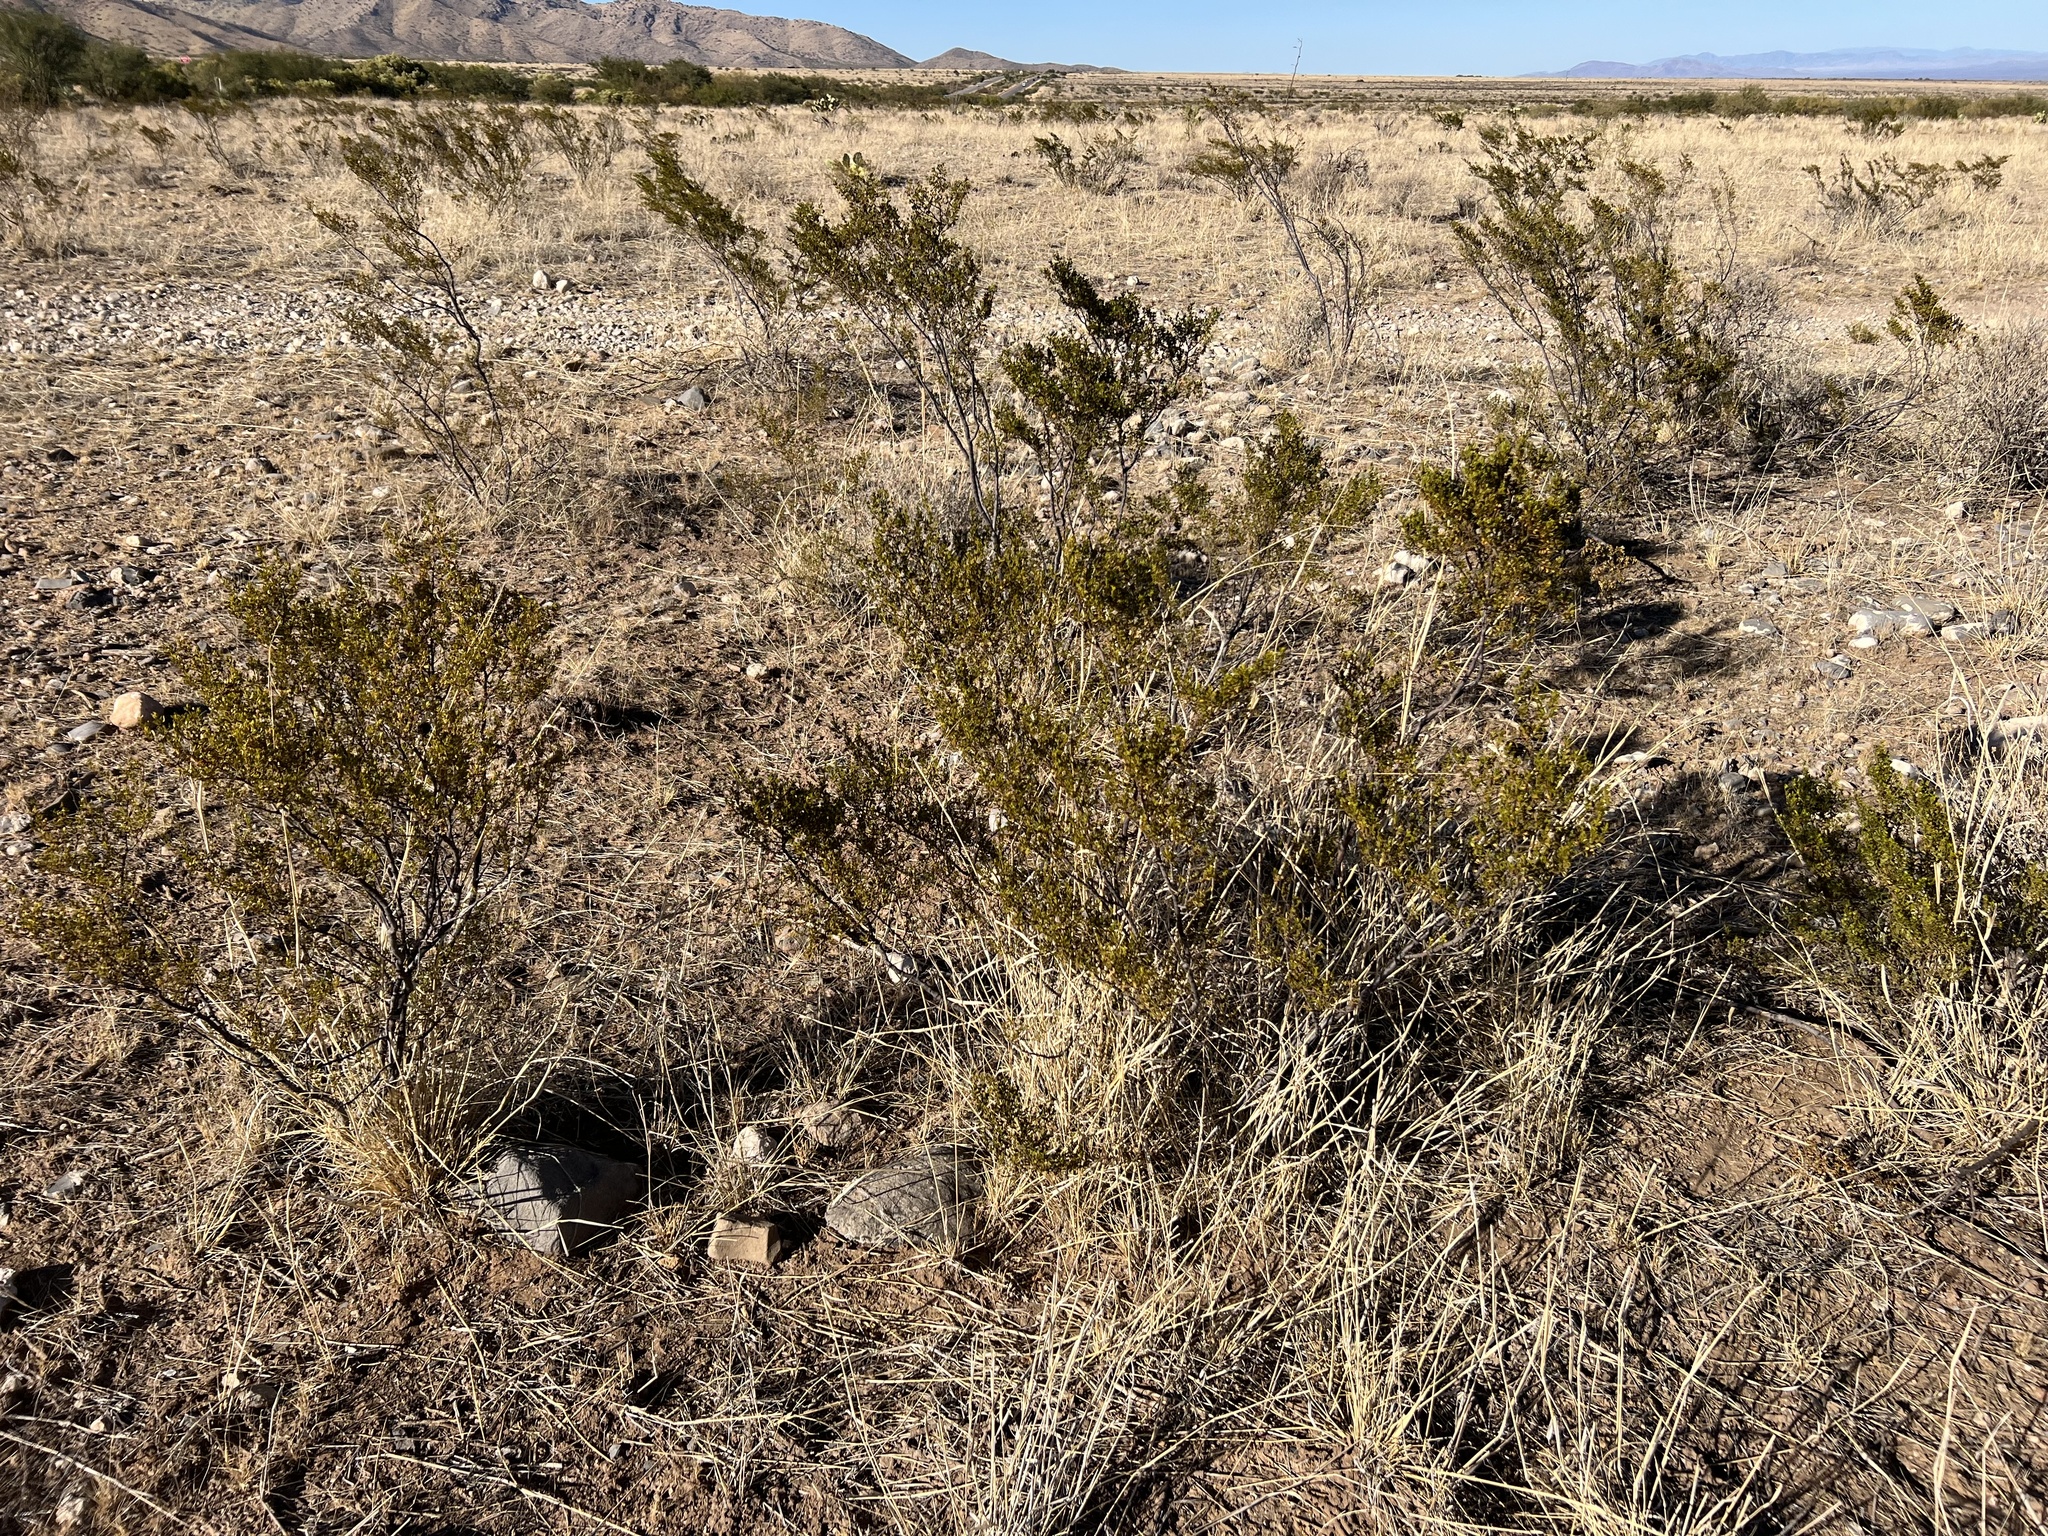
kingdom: Plantae
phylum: Tracheophyta
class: Magnoliopsida
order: Zygophyllales
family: Zygophyllaceae
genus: Larrea
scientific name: Larrea tridentata
